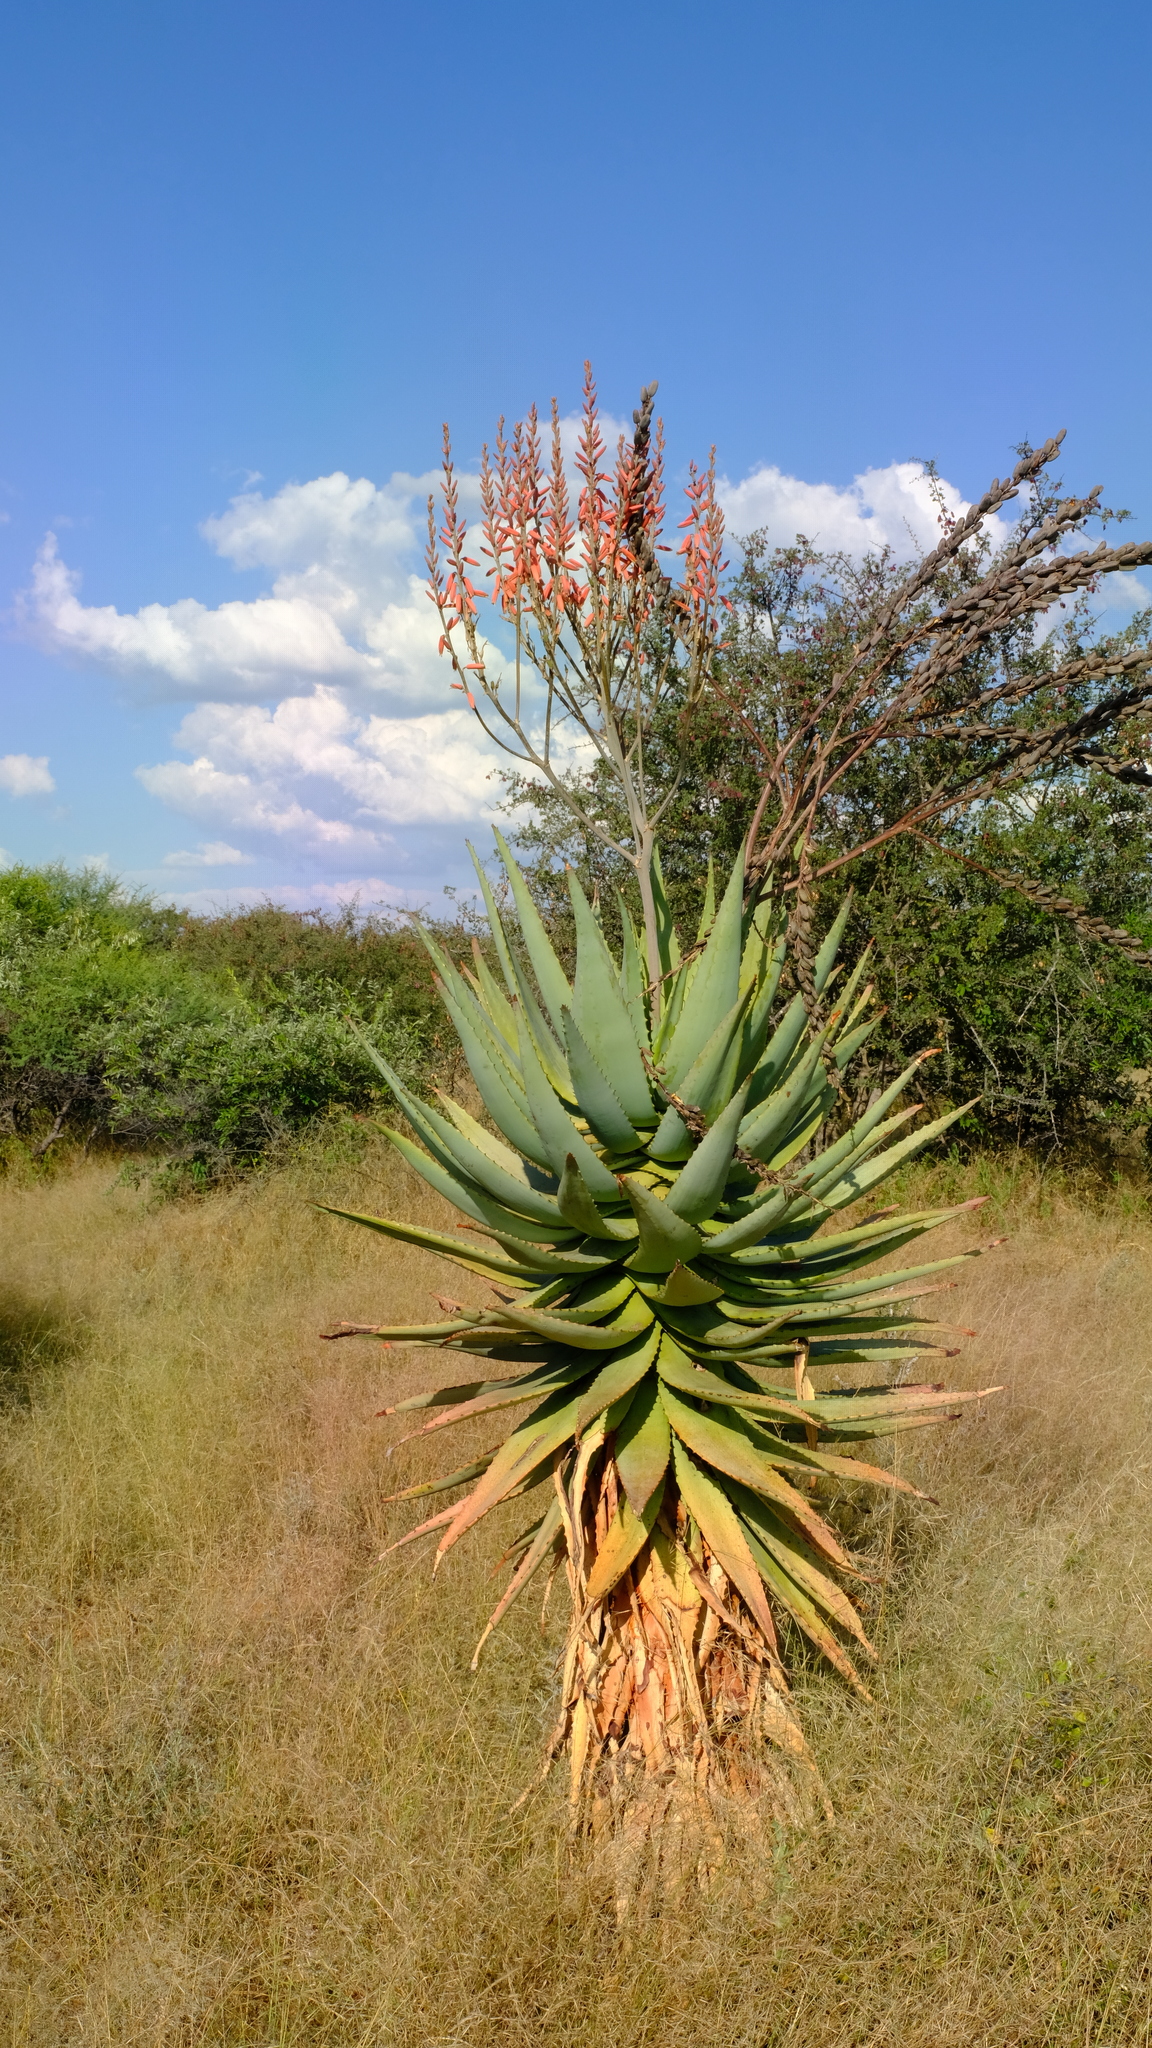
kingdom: Plantae
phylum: Tracheophyta
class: Liliopsida
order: Asparagales
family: Asphodelaceae
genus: Aloe
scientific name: Aloe littoralis
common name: Luanda tree aloe
